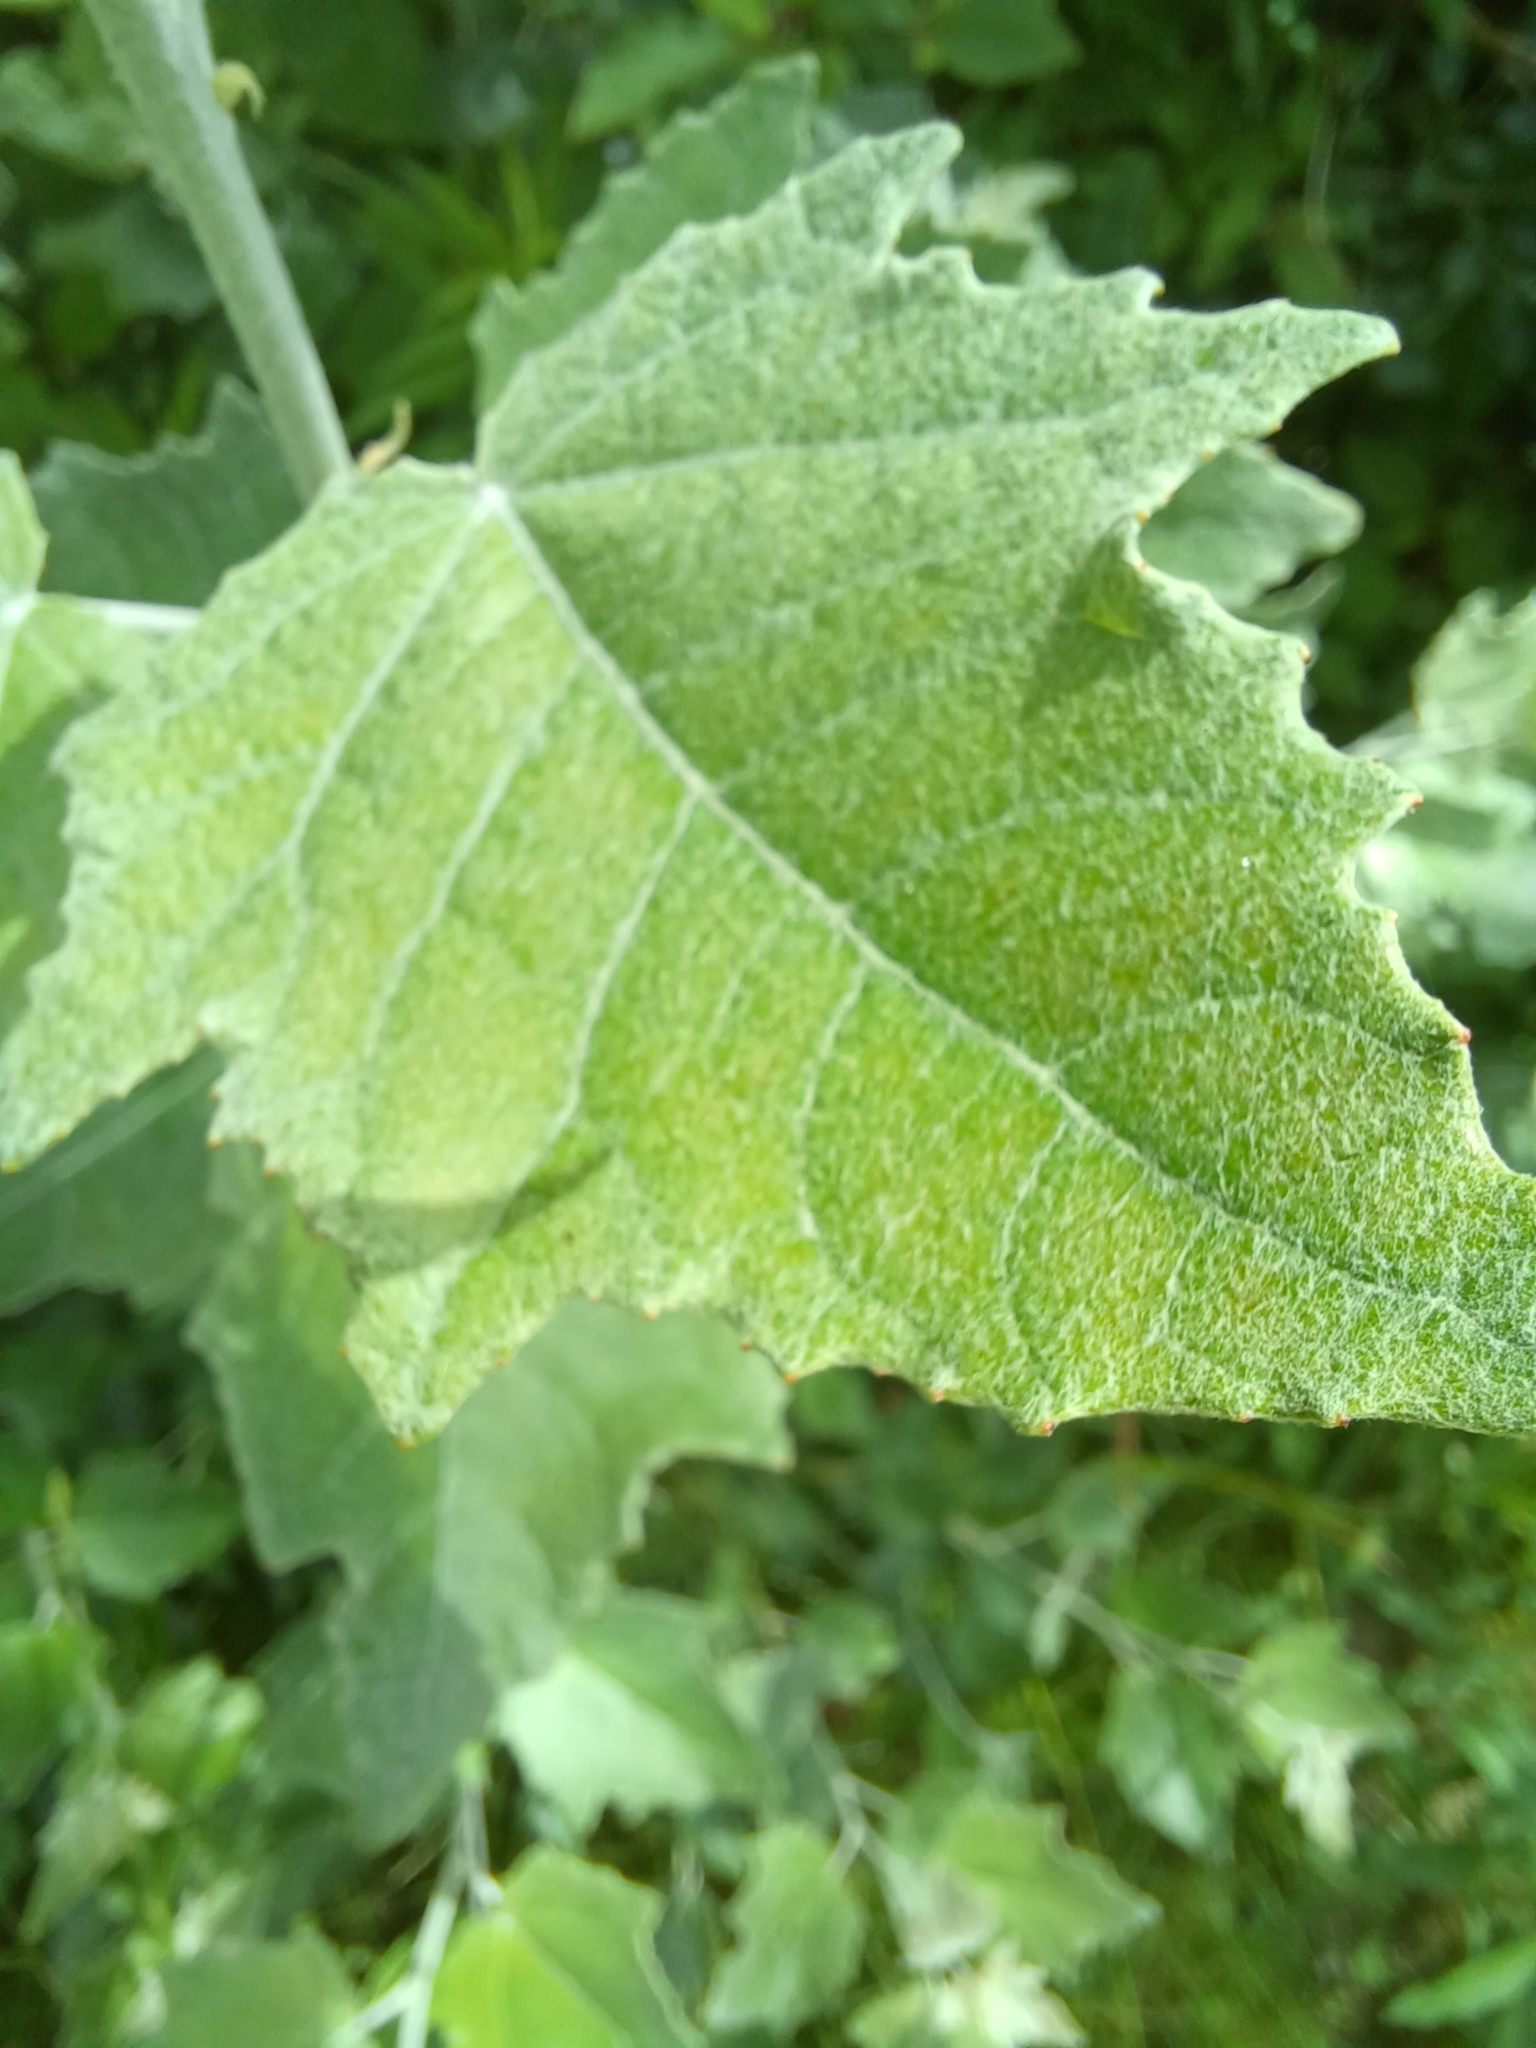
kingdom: Plantae
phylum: Tracheophyta
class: Magnoliopsida
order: Malpighiales
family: Salicaceae
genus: Populus
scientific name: Populus alba
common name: White poplar
